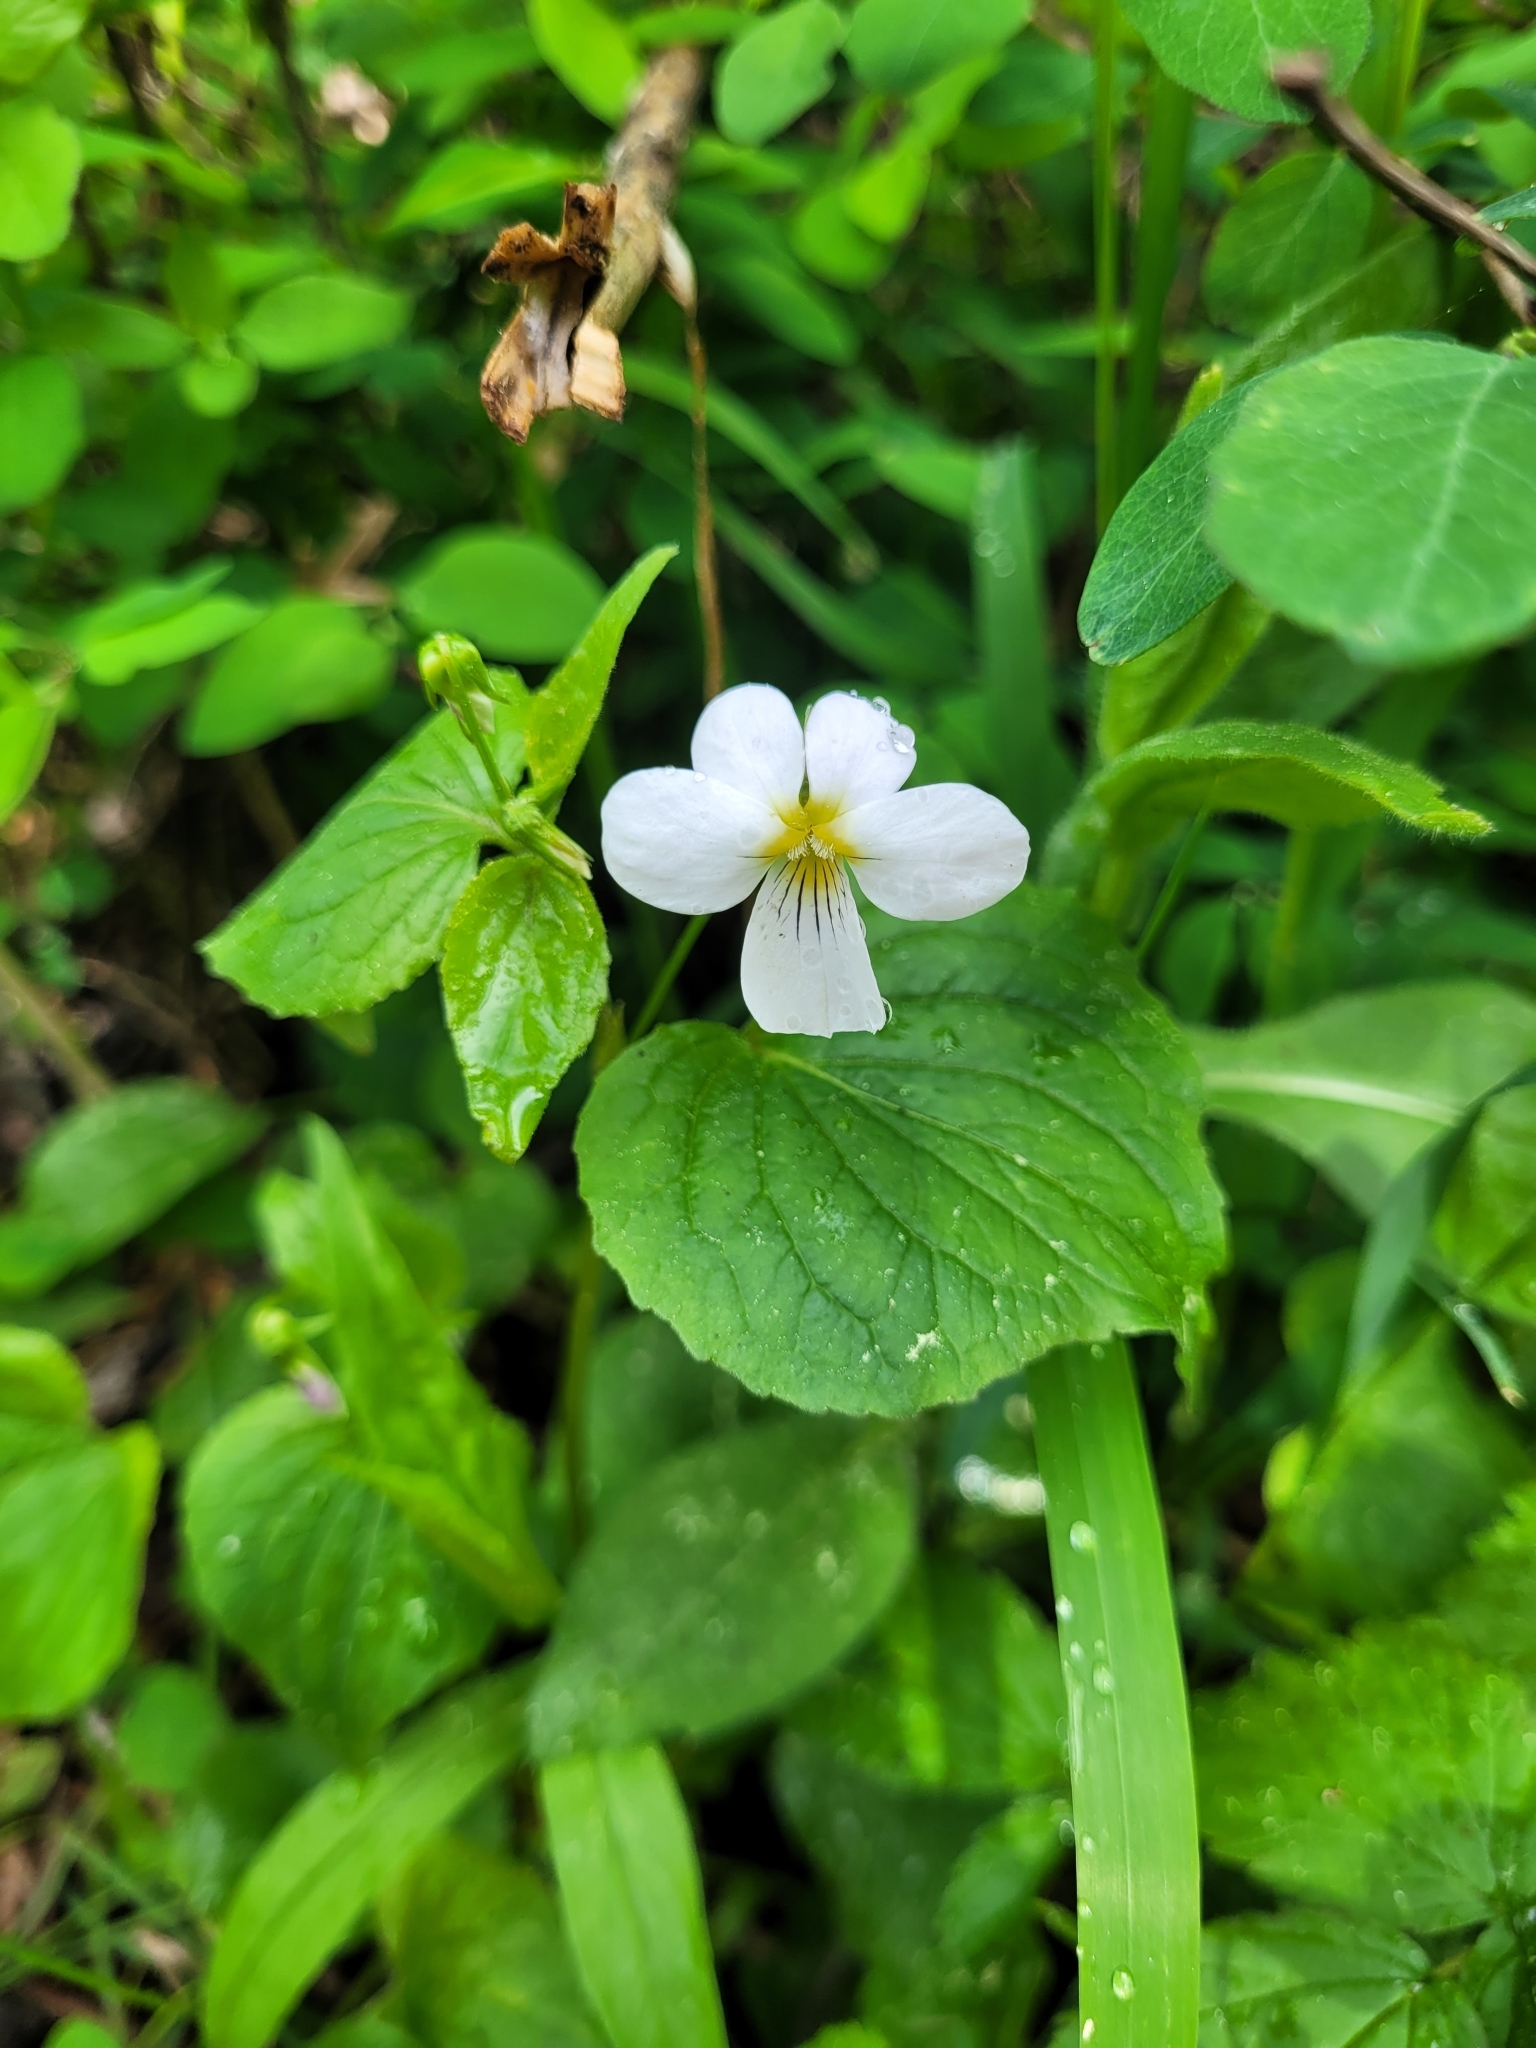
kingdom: Plantae
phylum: Tracheophyta
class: Magnoliopsida
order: Malpighiales
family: Violaceae
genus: Viola
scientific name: Viola canadensis
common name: Canada violet
